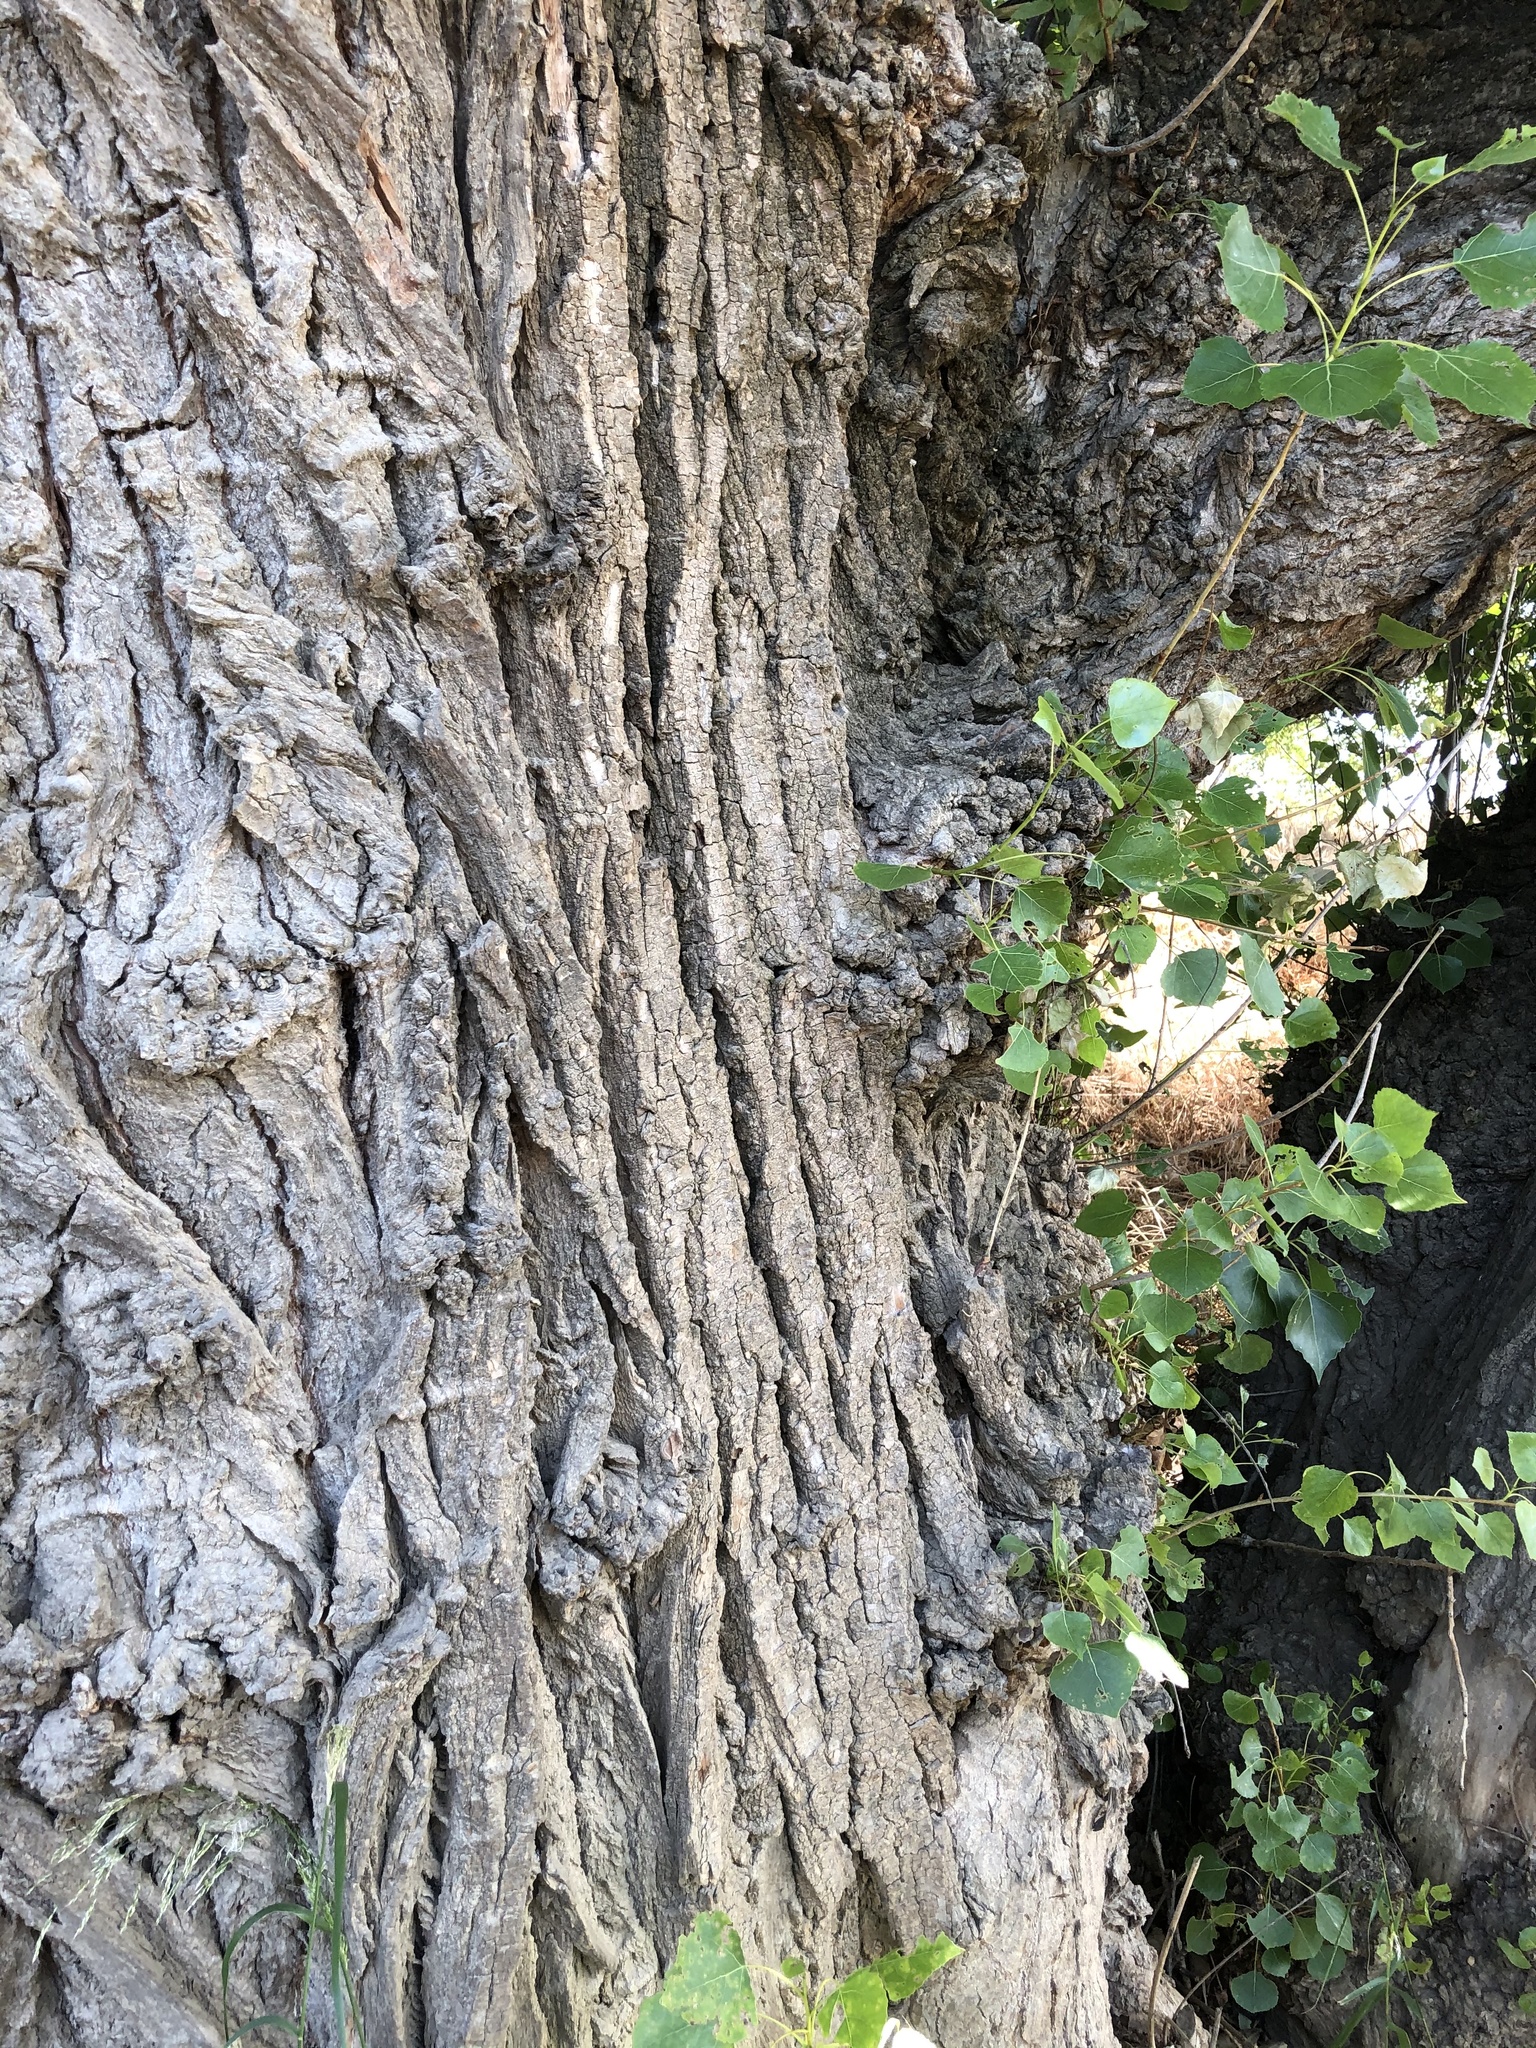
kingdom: Plantae
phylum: Tracheophyta
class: Magnoliopsida
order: Malpighiales
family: Salicaceae
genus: Populus
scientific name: Populus fremontii
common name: Fremont's cottonwood
